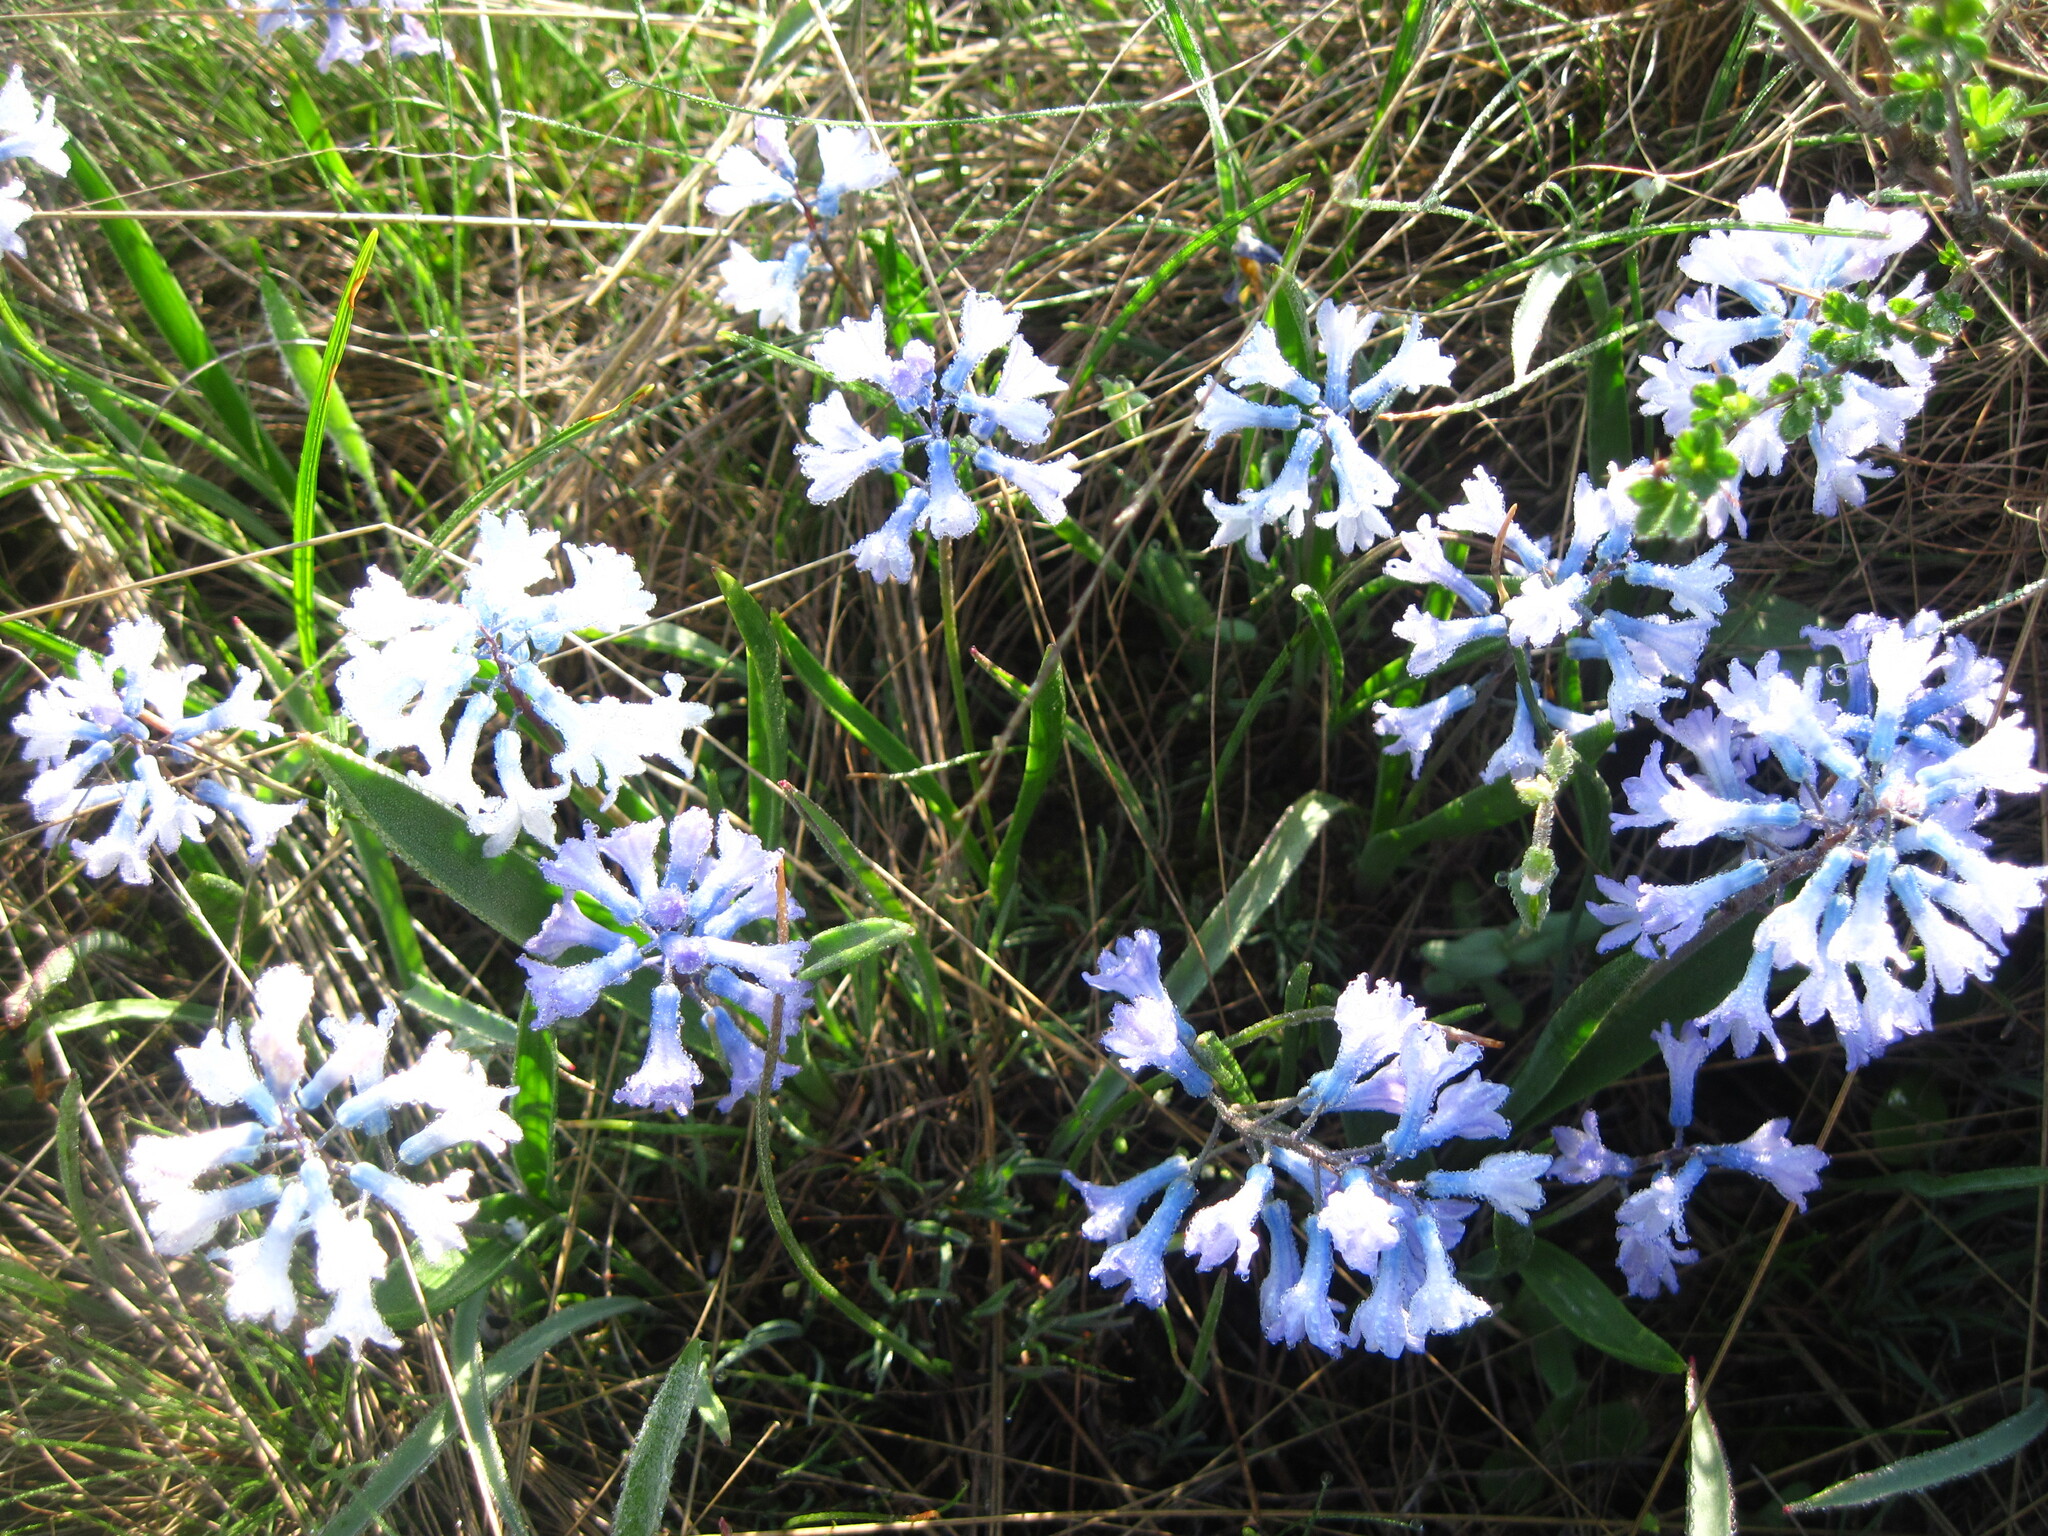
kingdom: Plantae
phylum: Tracheophyta
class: Liliopsida
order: Asparagales
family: Asparagaceae
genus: Hyacinthella
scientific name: Hyacinthella pallasiana
